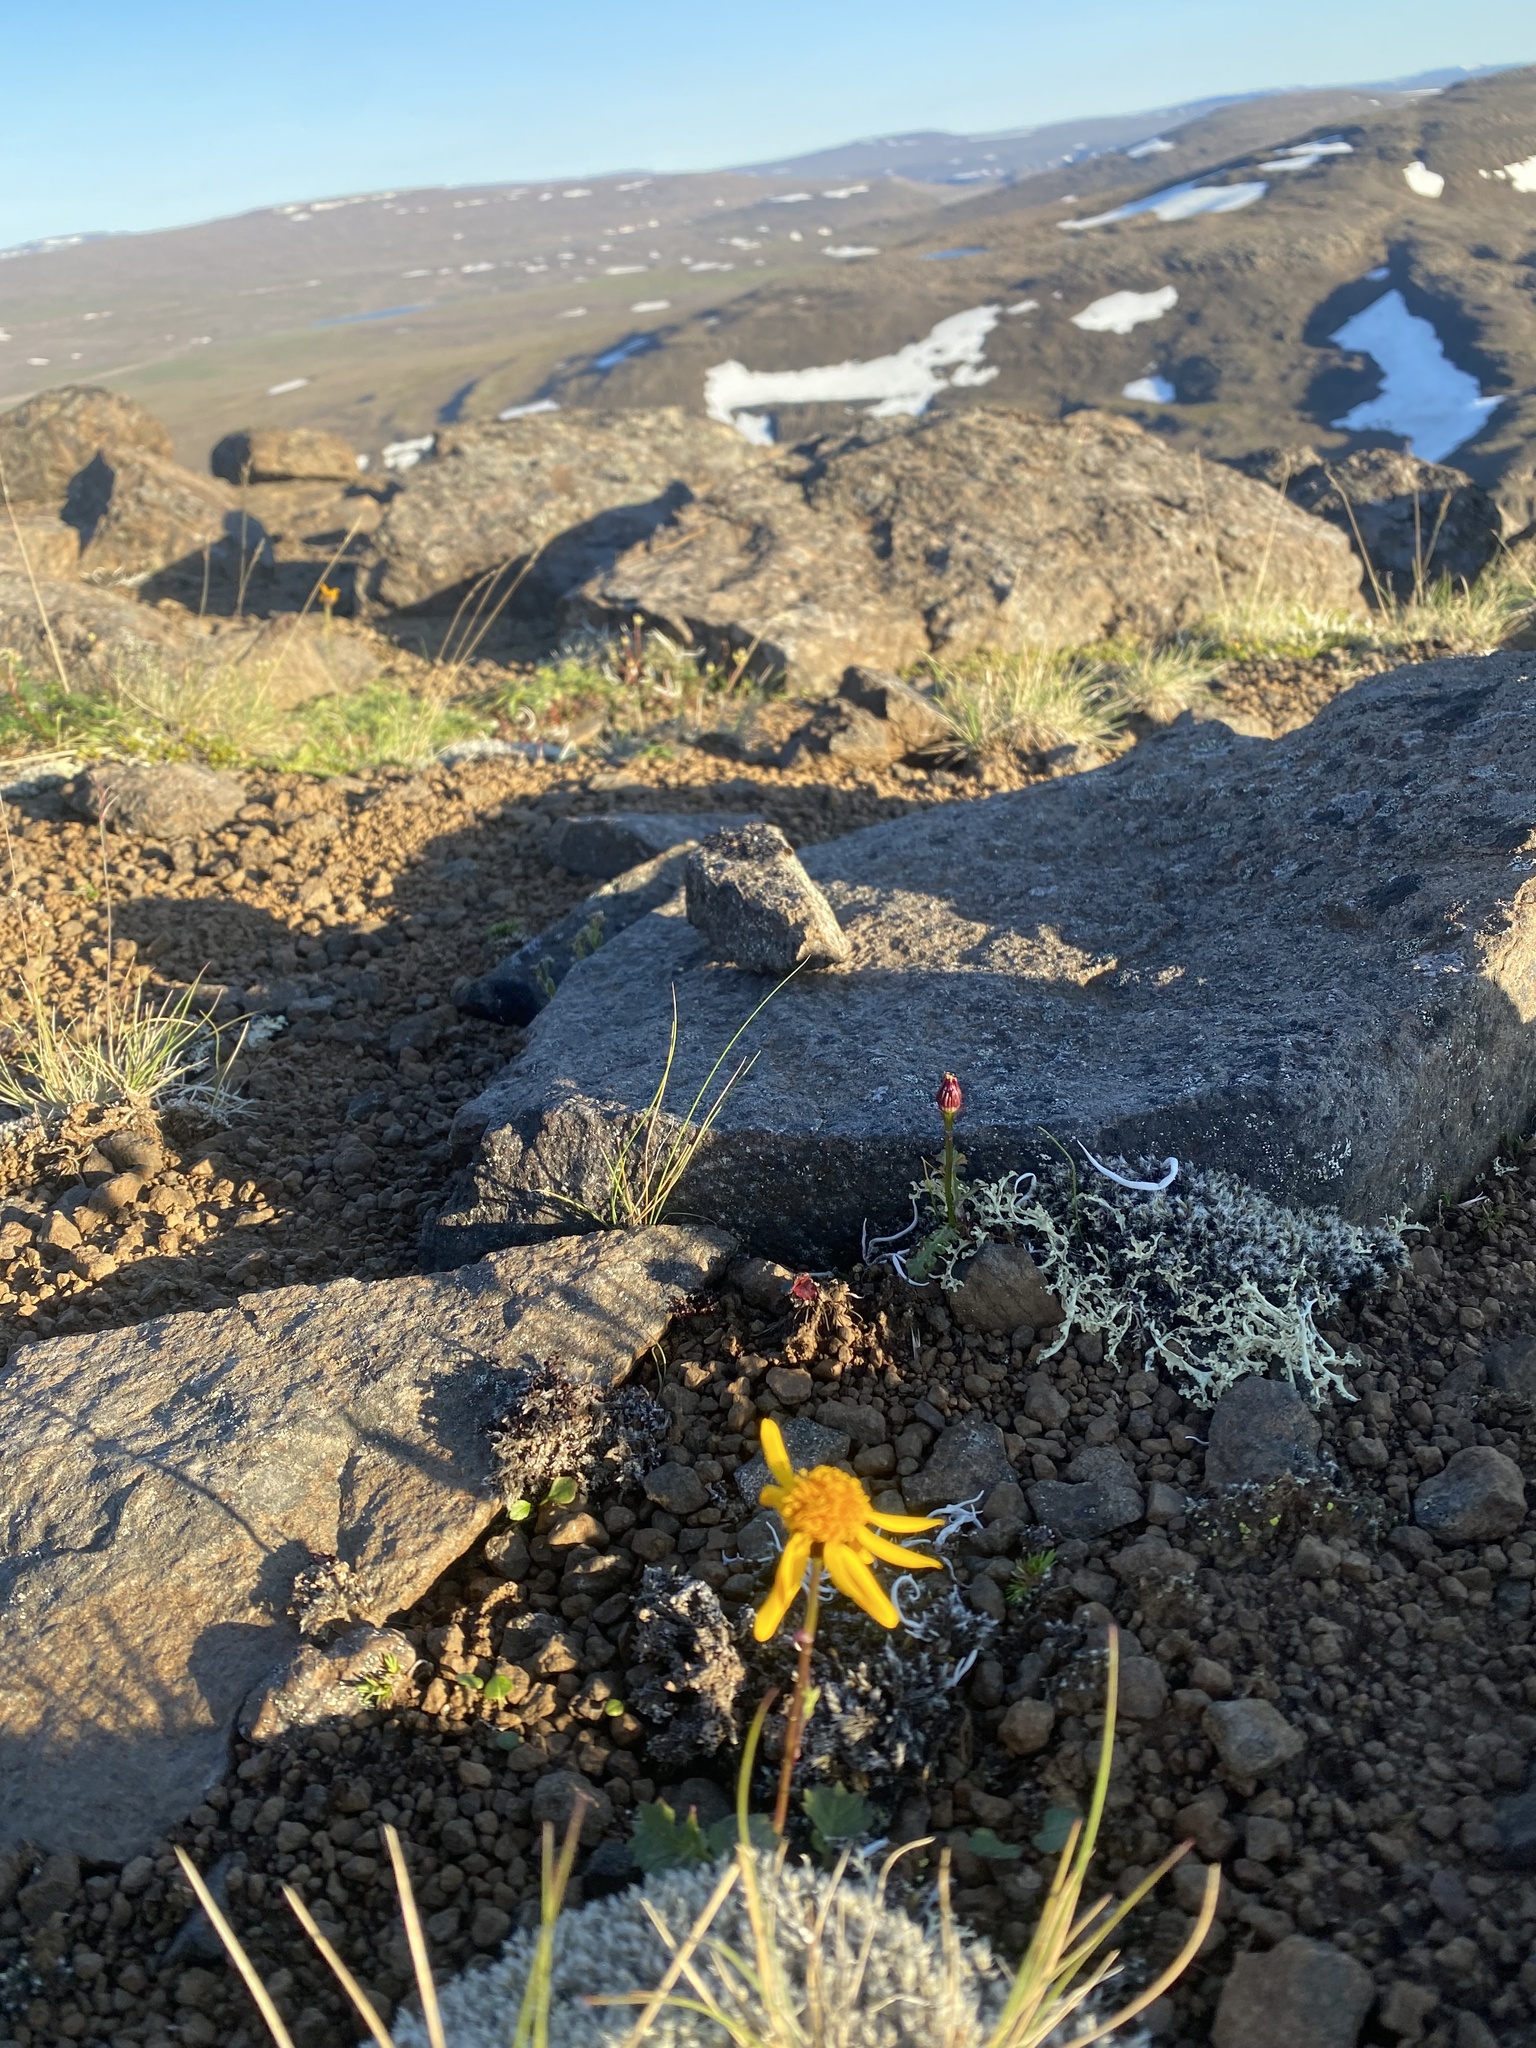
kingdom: Plantae
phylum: Tracheophyta
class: Magnoliopsida
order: Asterales
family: Asteraceae
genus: Packera
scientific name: Packera heterophylla
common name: Arctic butterweed
